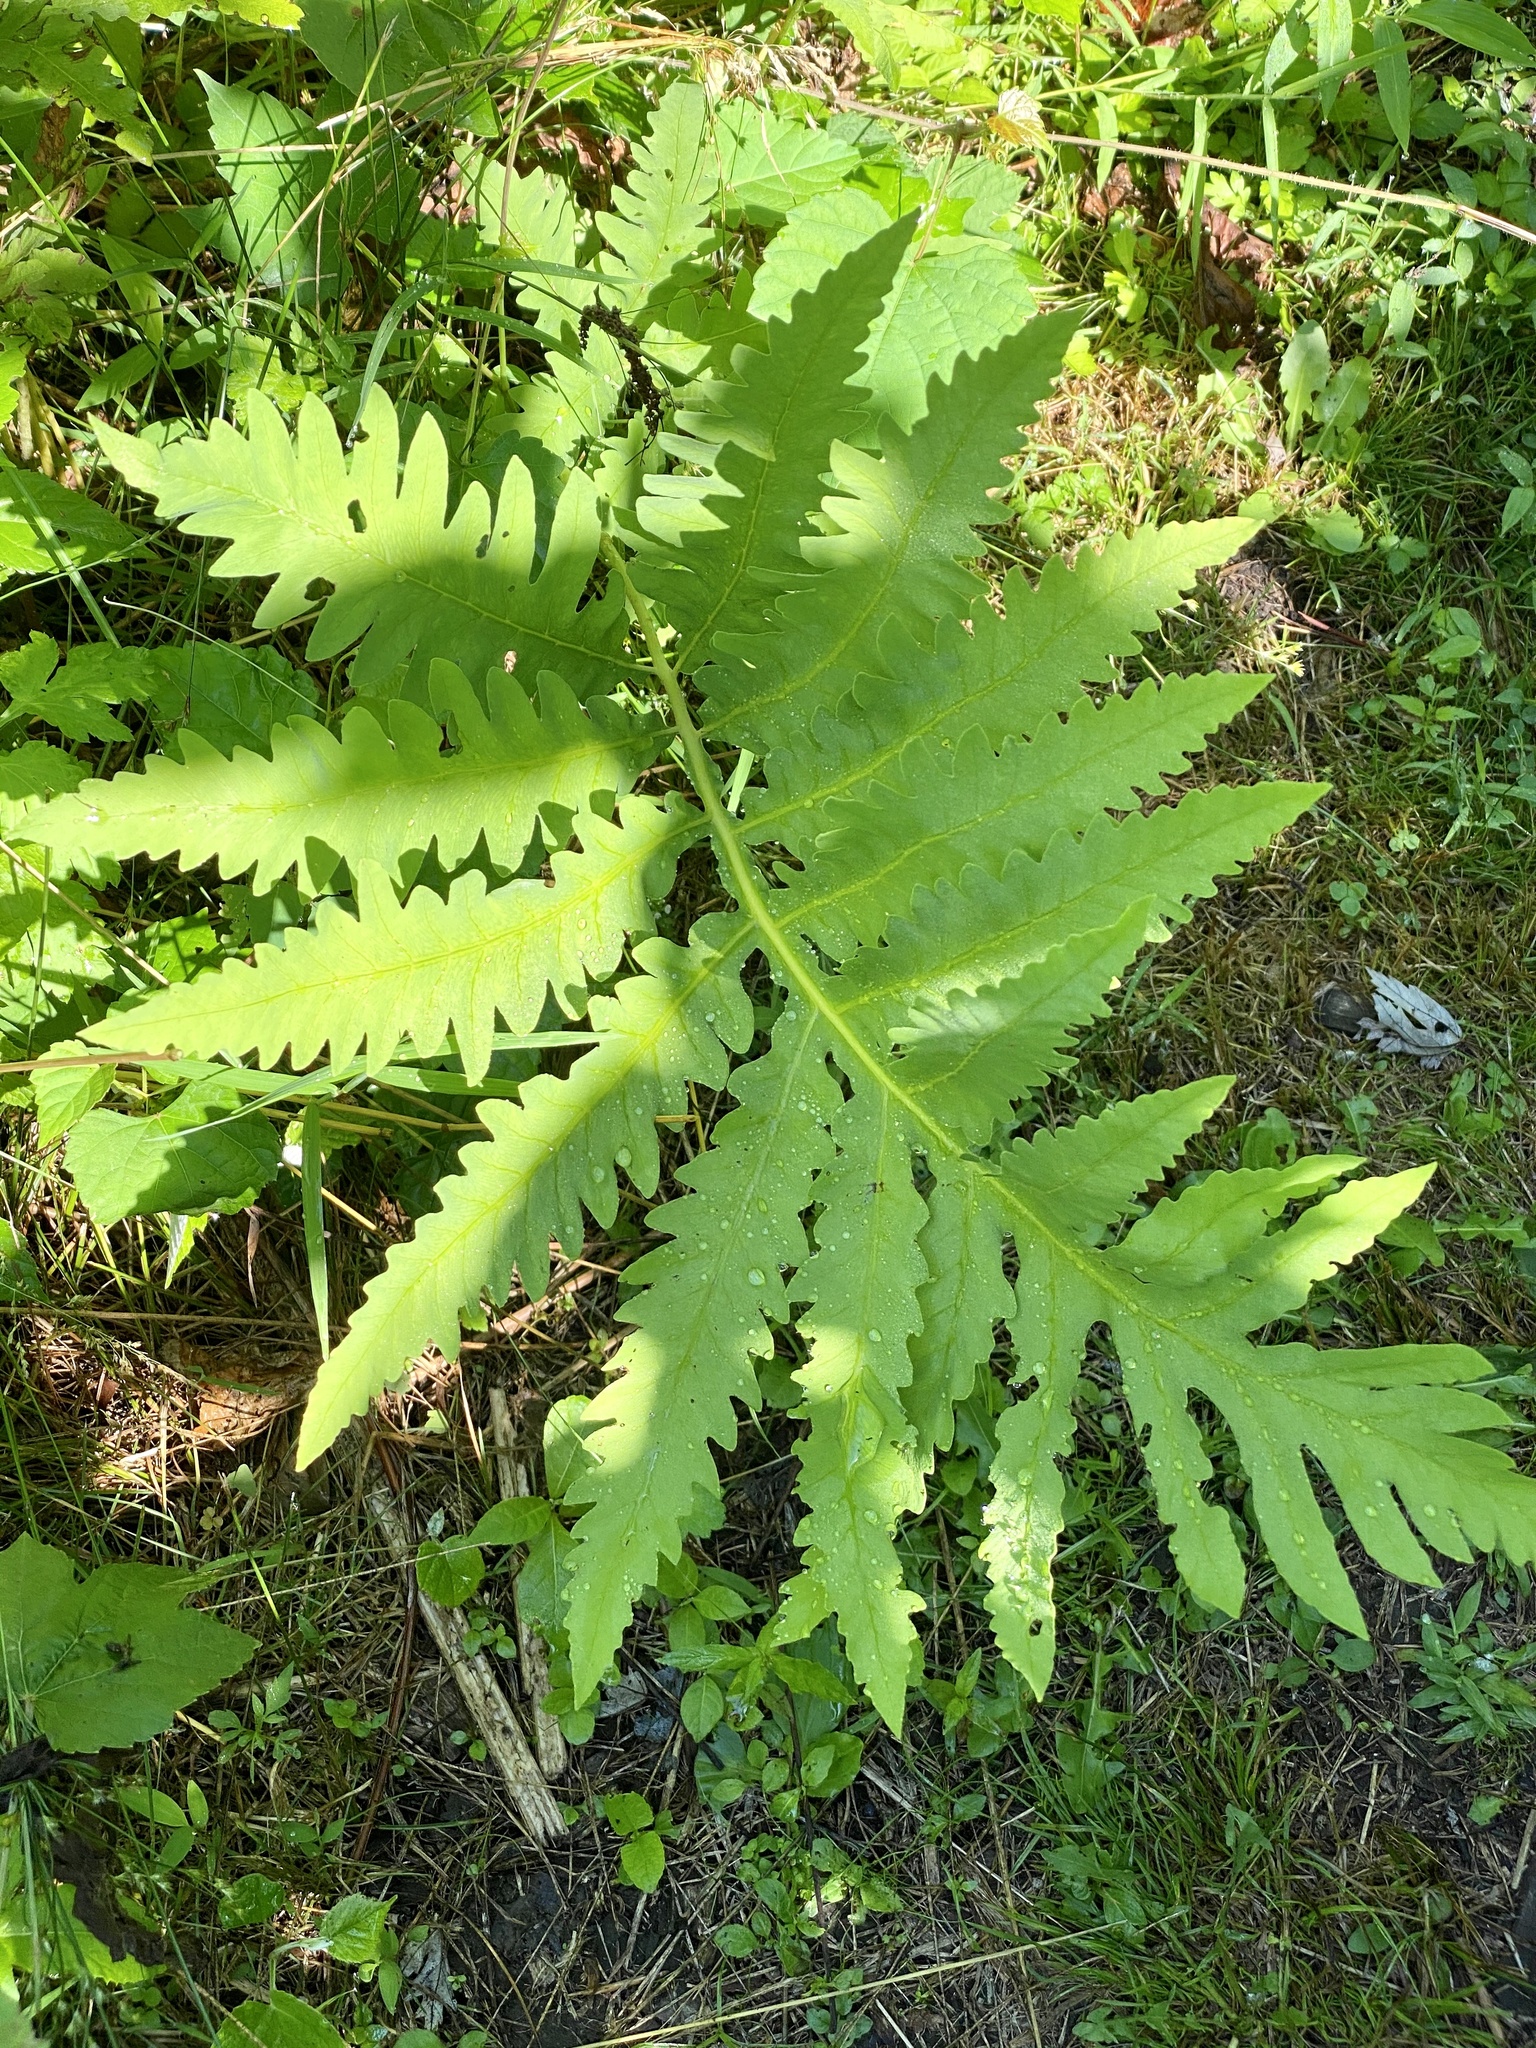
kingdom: Plantae
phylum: Tracheophyta
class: Polypodiopsida
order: Polypodiales
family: Onocleaceae
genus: Onoclea
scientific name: Onoclea sensibilis
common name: Sensitive fern
